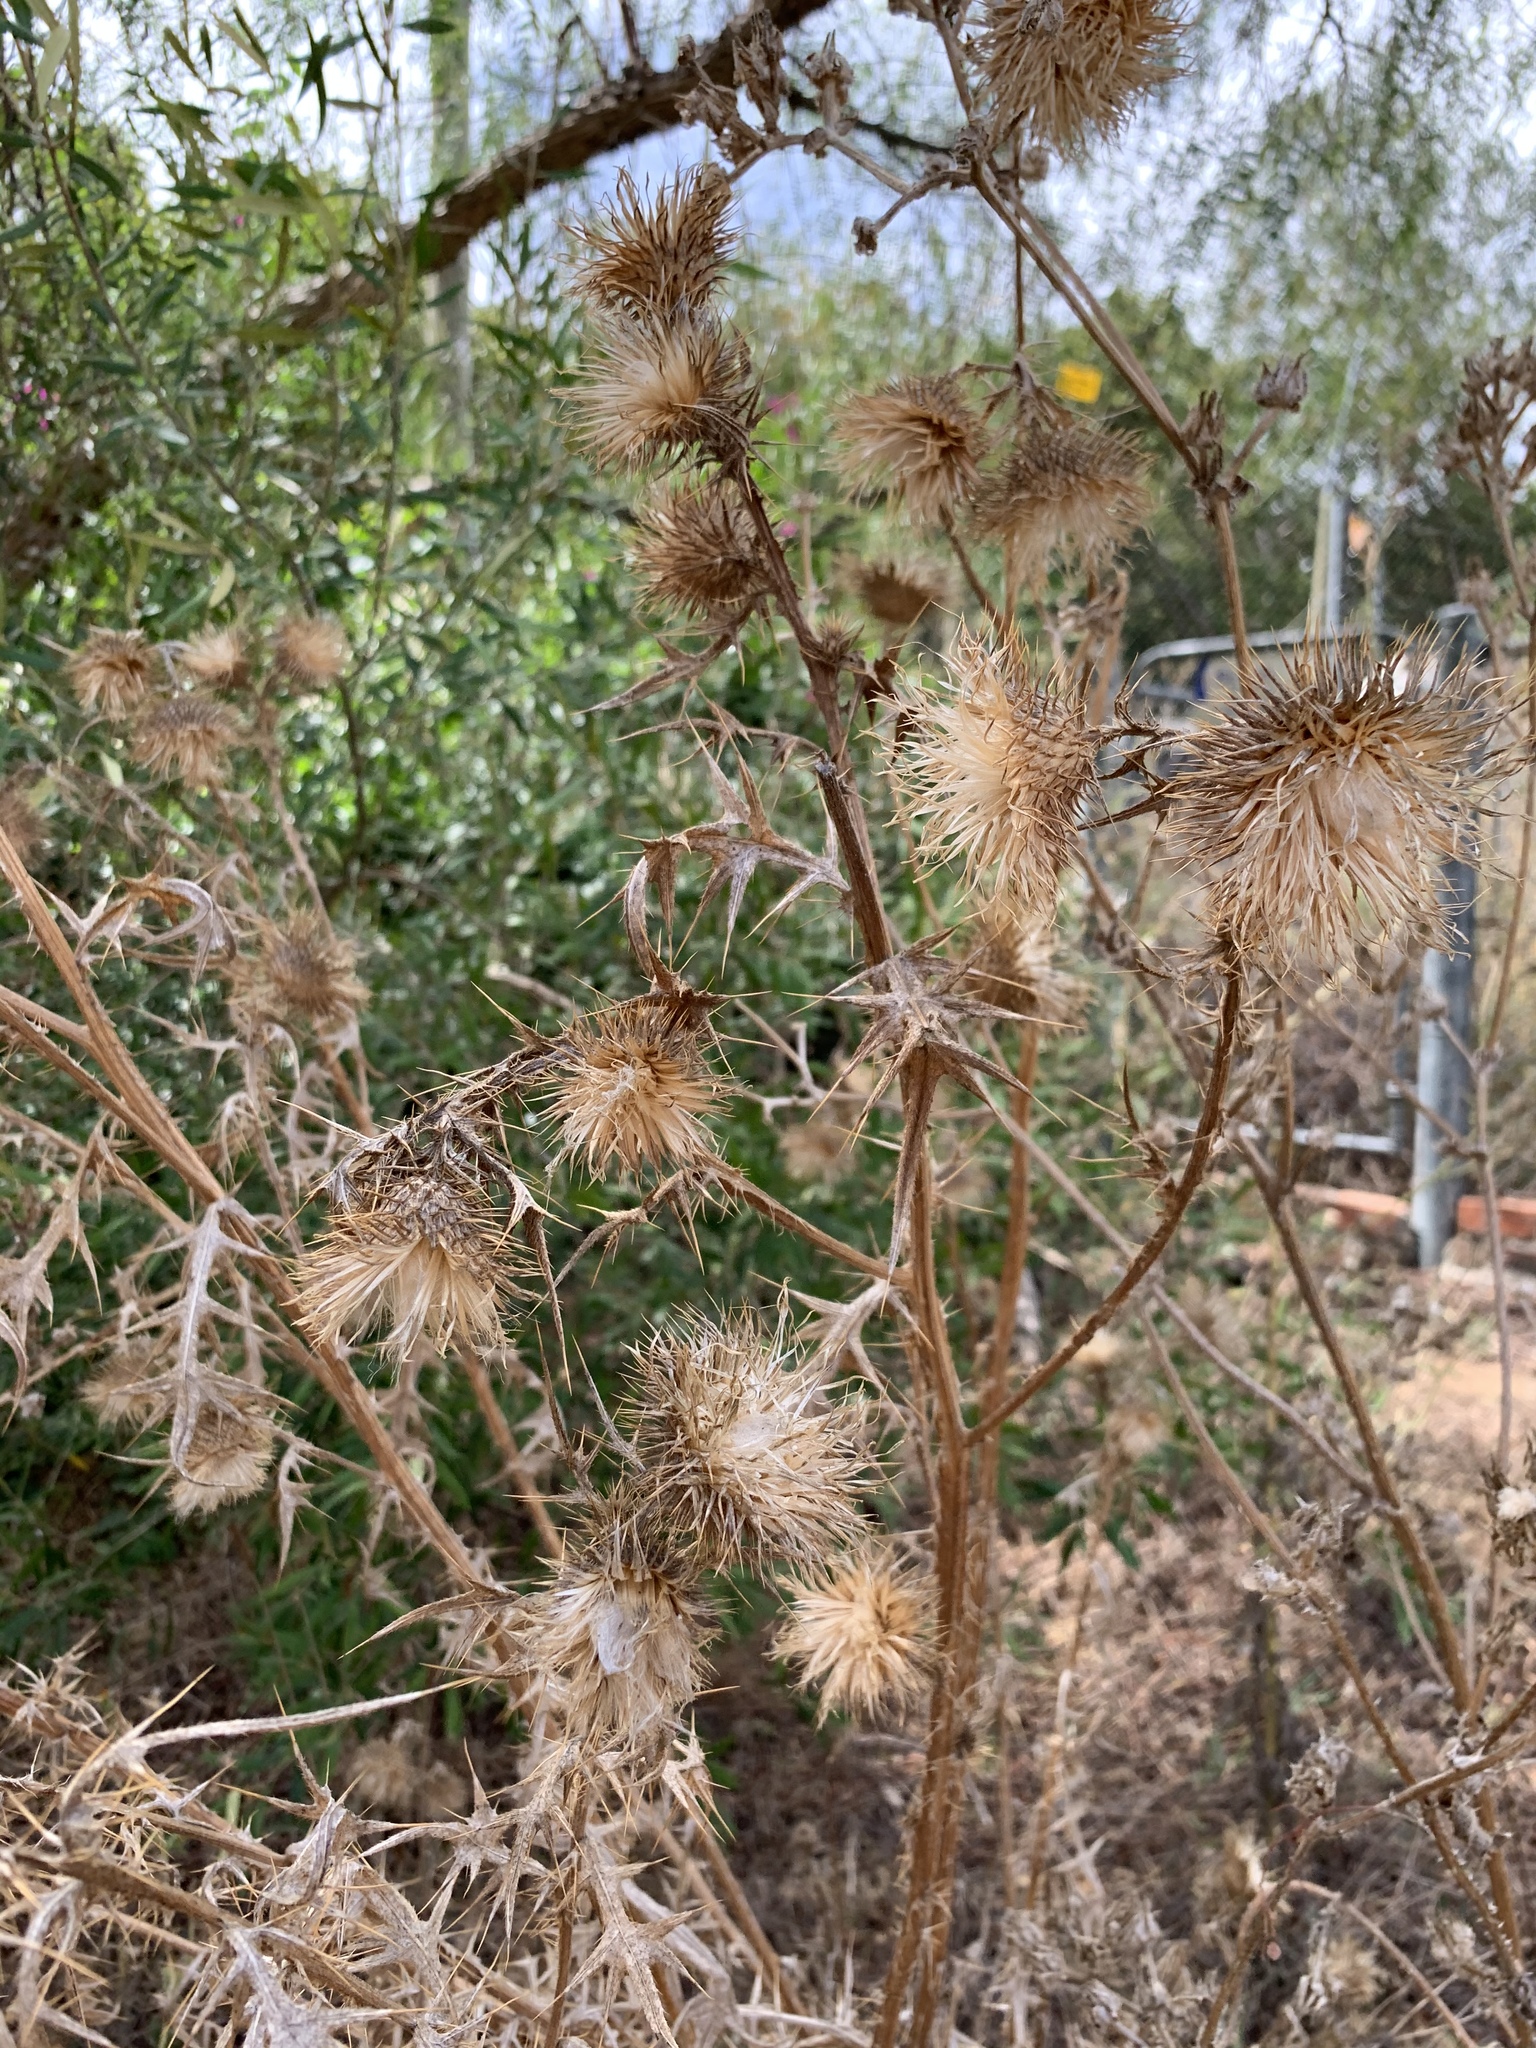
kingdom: Plantae
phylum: Tracheophyta
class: Magnoliopsida
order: Asterales
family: Asteraceae
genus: Cirsium
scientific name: Cirsium vulgare
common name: Bull thistle
